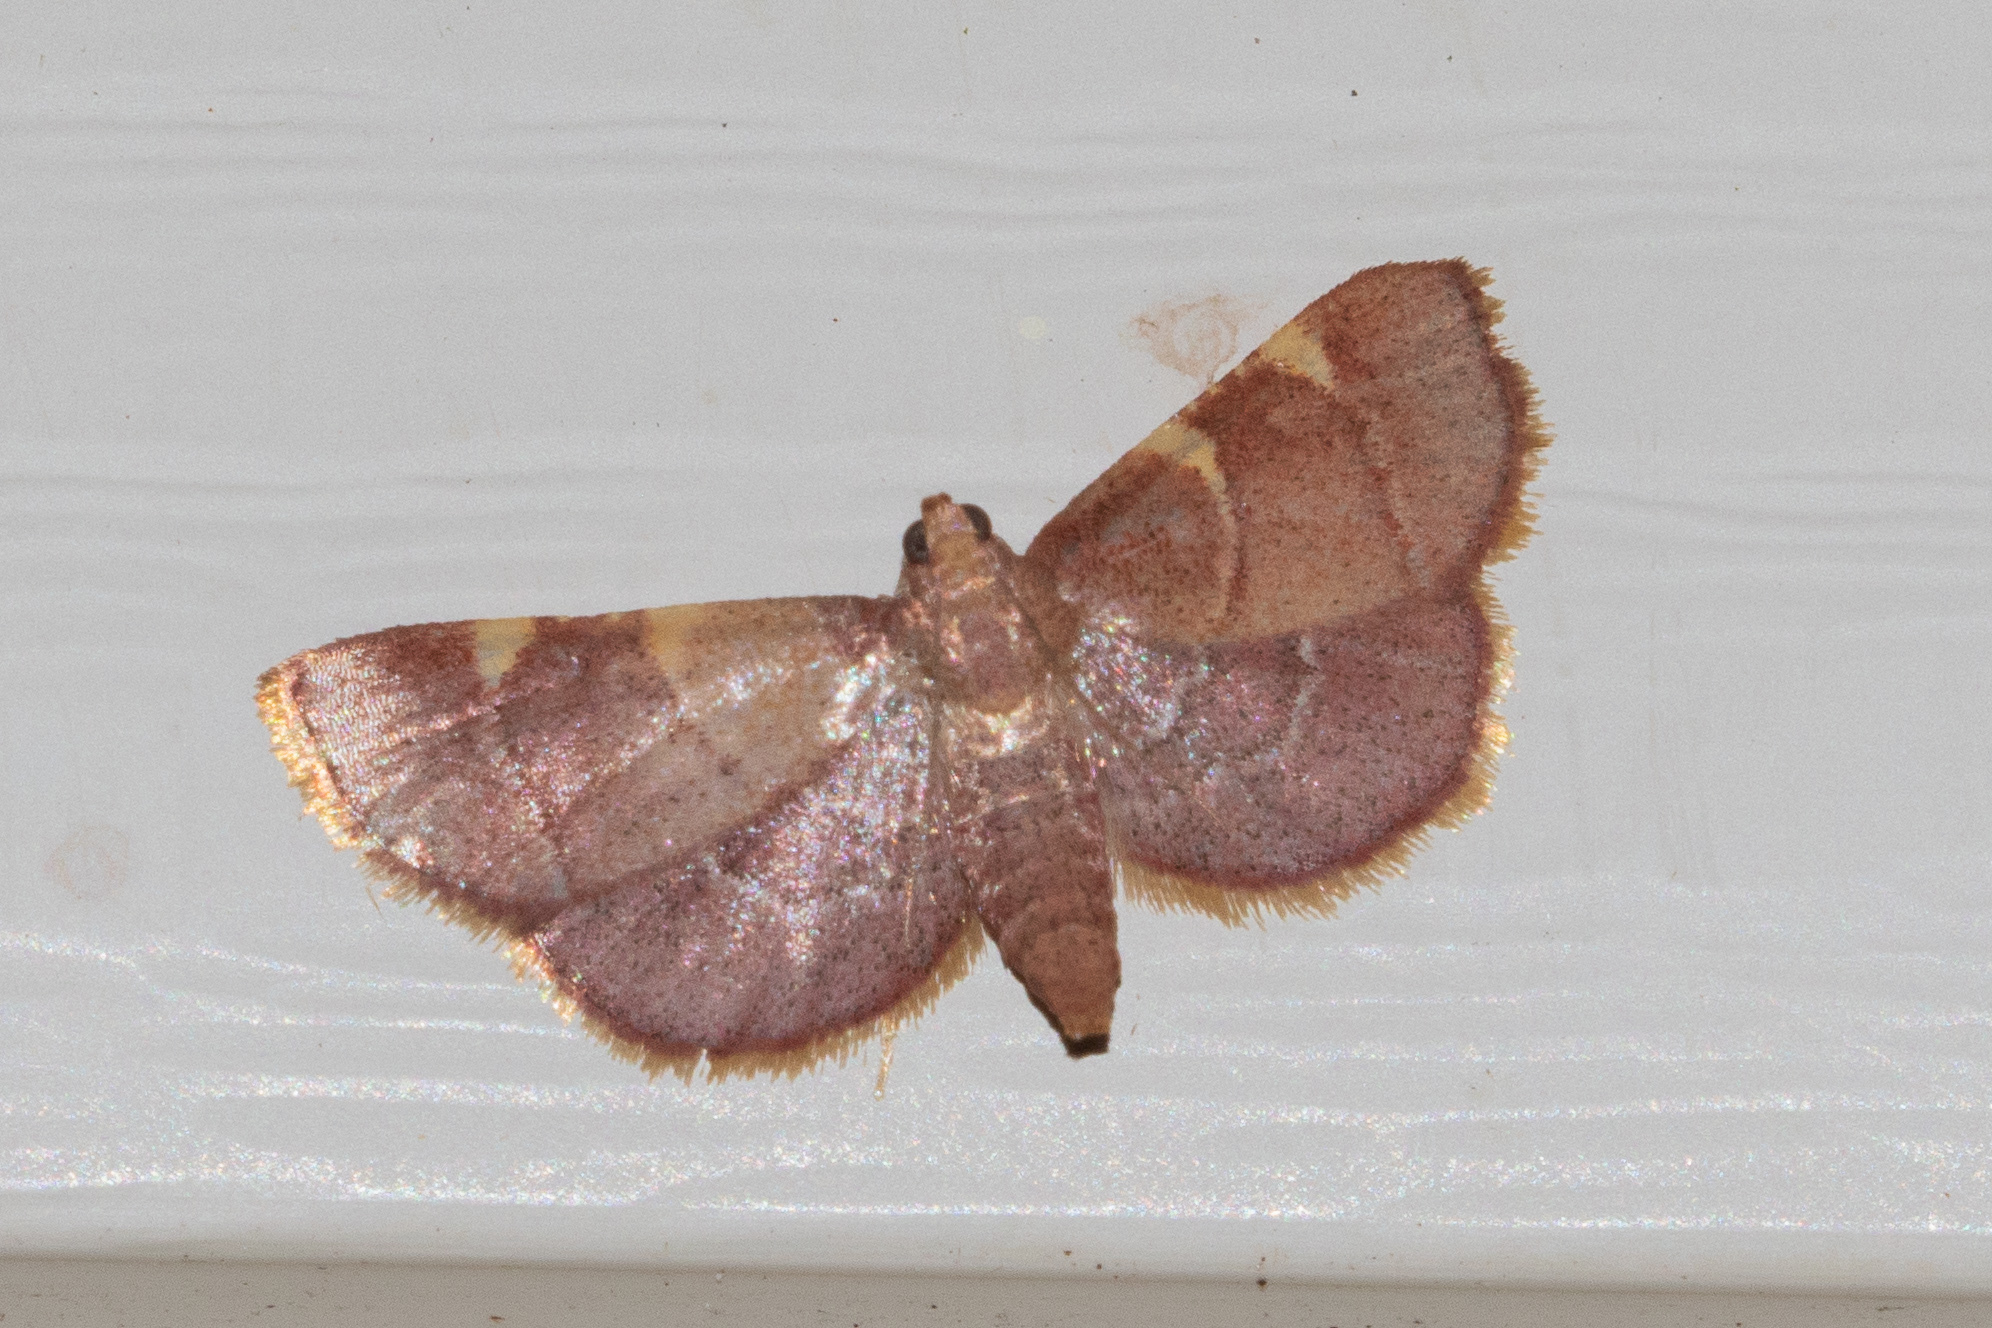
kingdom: Animalia
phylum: Arthropoda
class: Insecta
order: Lepidoptera
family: Pyralidae
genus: Hypsopygia
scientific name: Hypsopygia olinalis
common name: Yellow-fringed dolichomia moth
